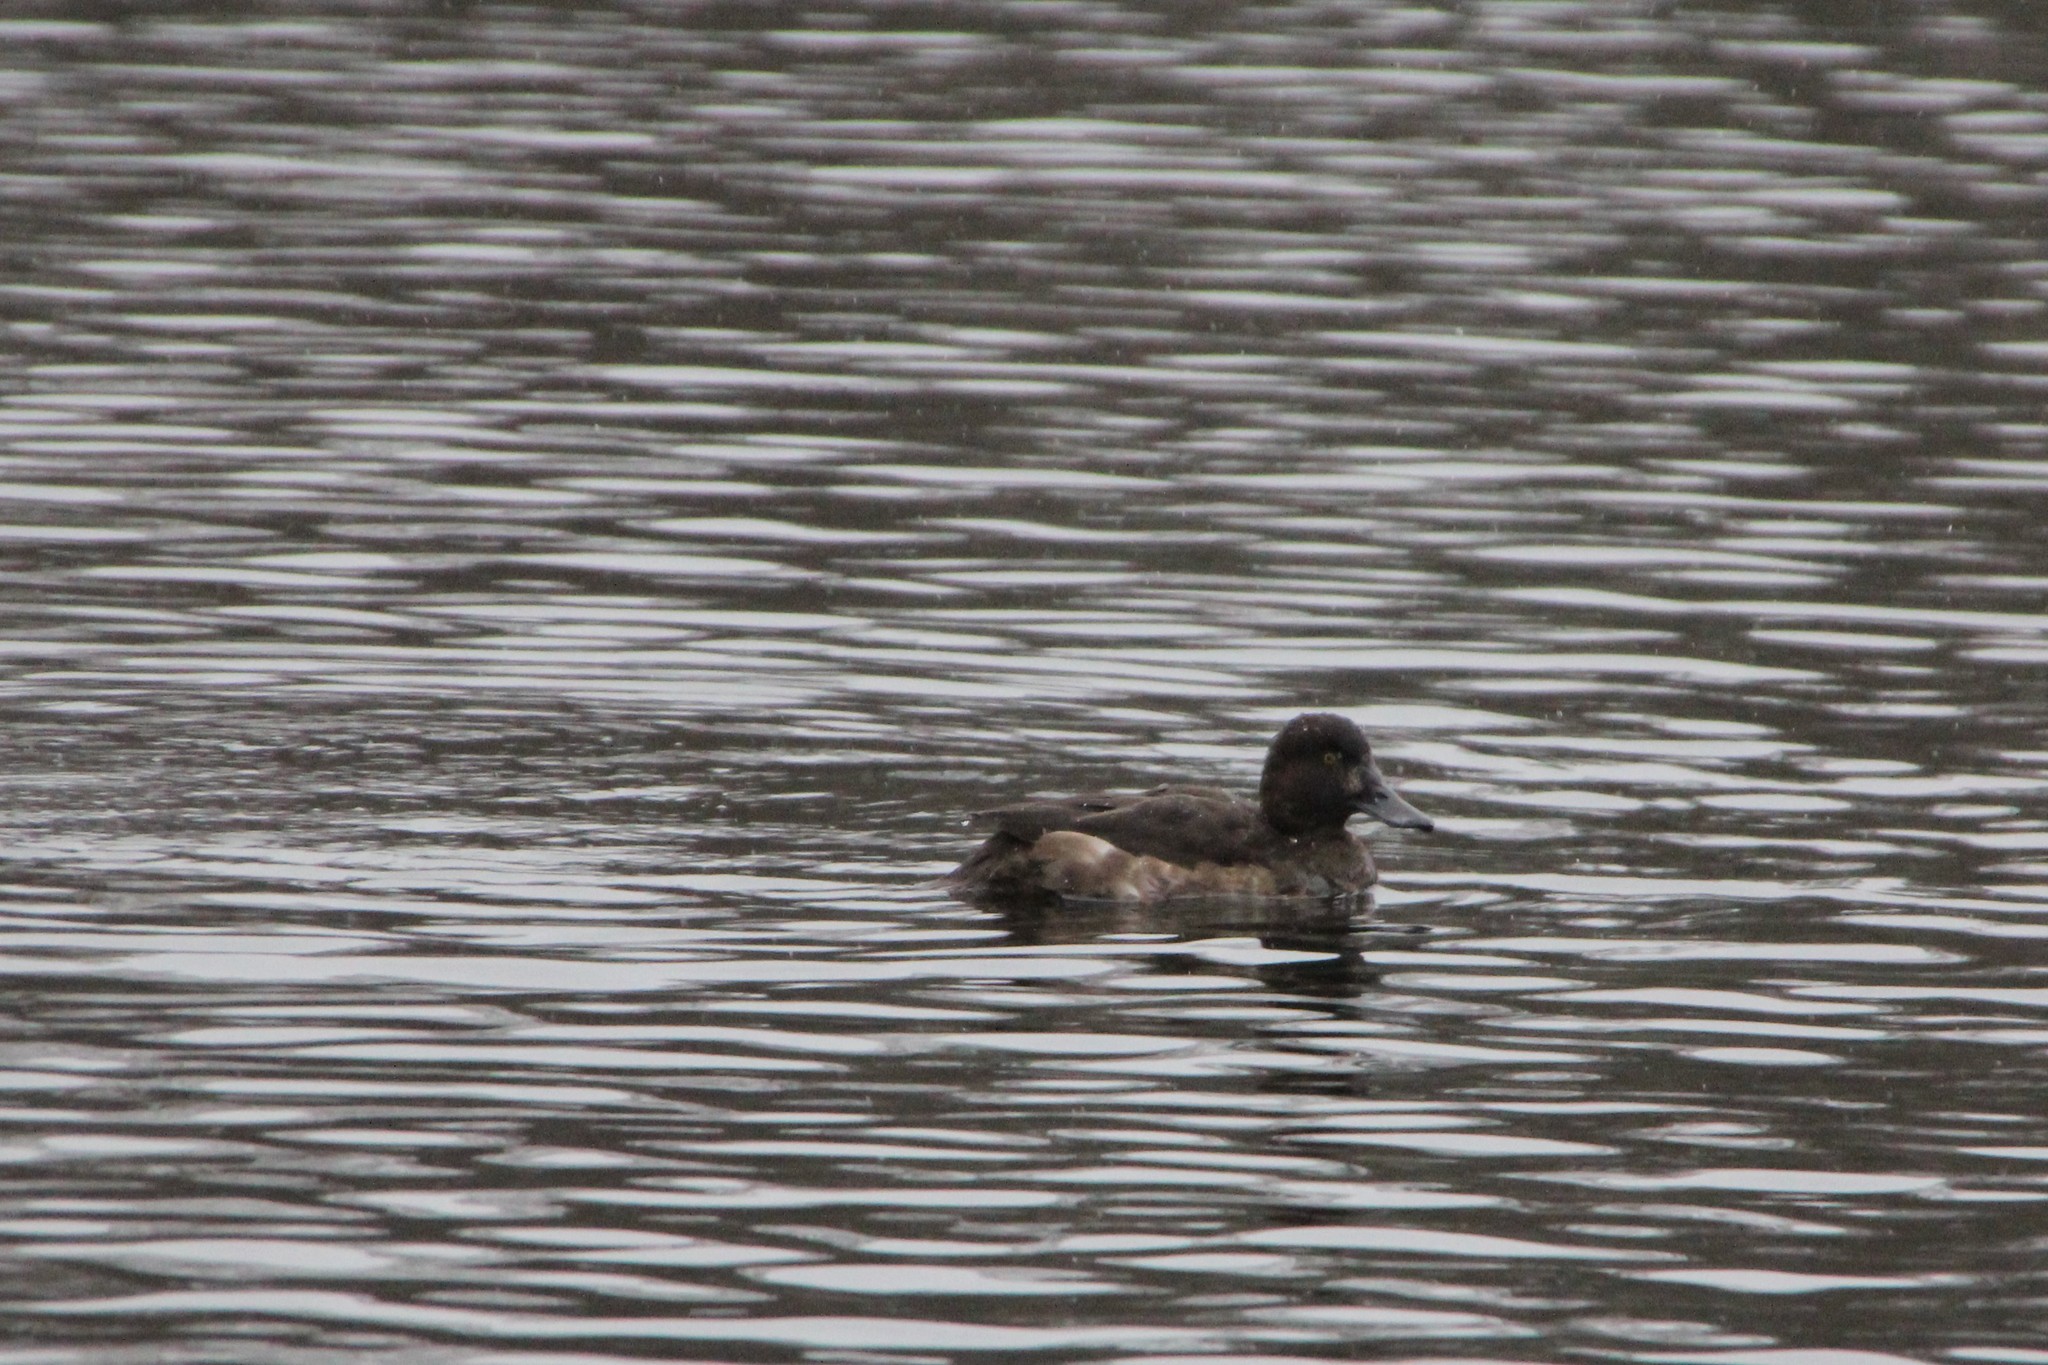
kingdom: Animalia
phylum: Chordata
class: Aves
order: Anseriformes
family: Anatidae
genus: Aythya
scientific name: Aythya fuligula
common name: Tufted duck
